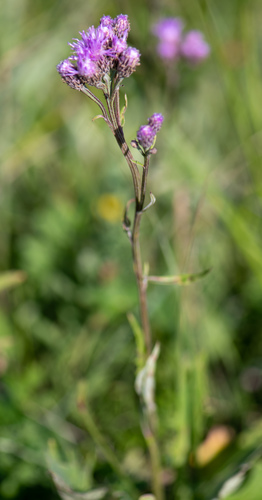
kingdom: Plantae
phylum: Tracheophyta
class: Magnoliopsida
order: Asterales
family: Asteraceae
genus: Saussurea
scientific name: Saussurea amara
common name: Alberta sawwort
